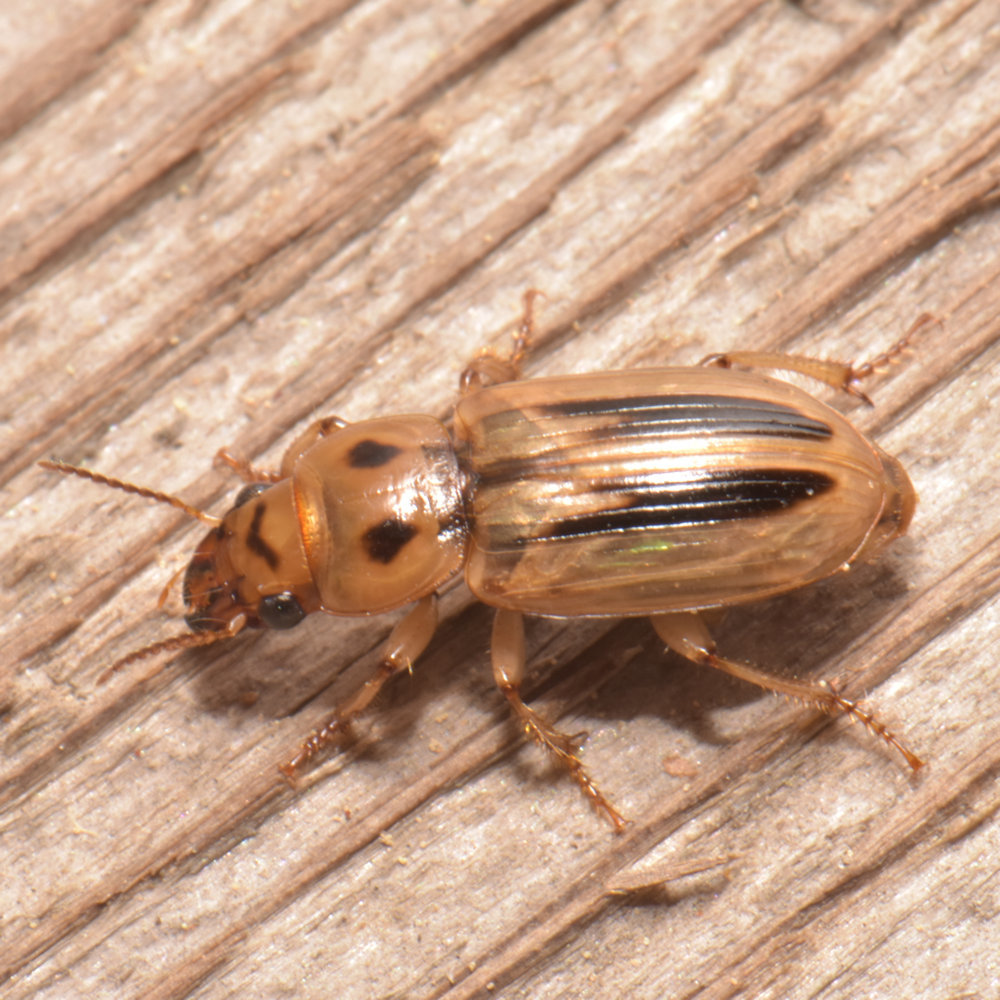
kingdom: Animalia
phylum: Arthropoda
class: Insecta
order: Coleoptera
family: Carabidae
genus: Stenolophus
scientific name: Stenolophus lineola
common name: Lined stenolophus
